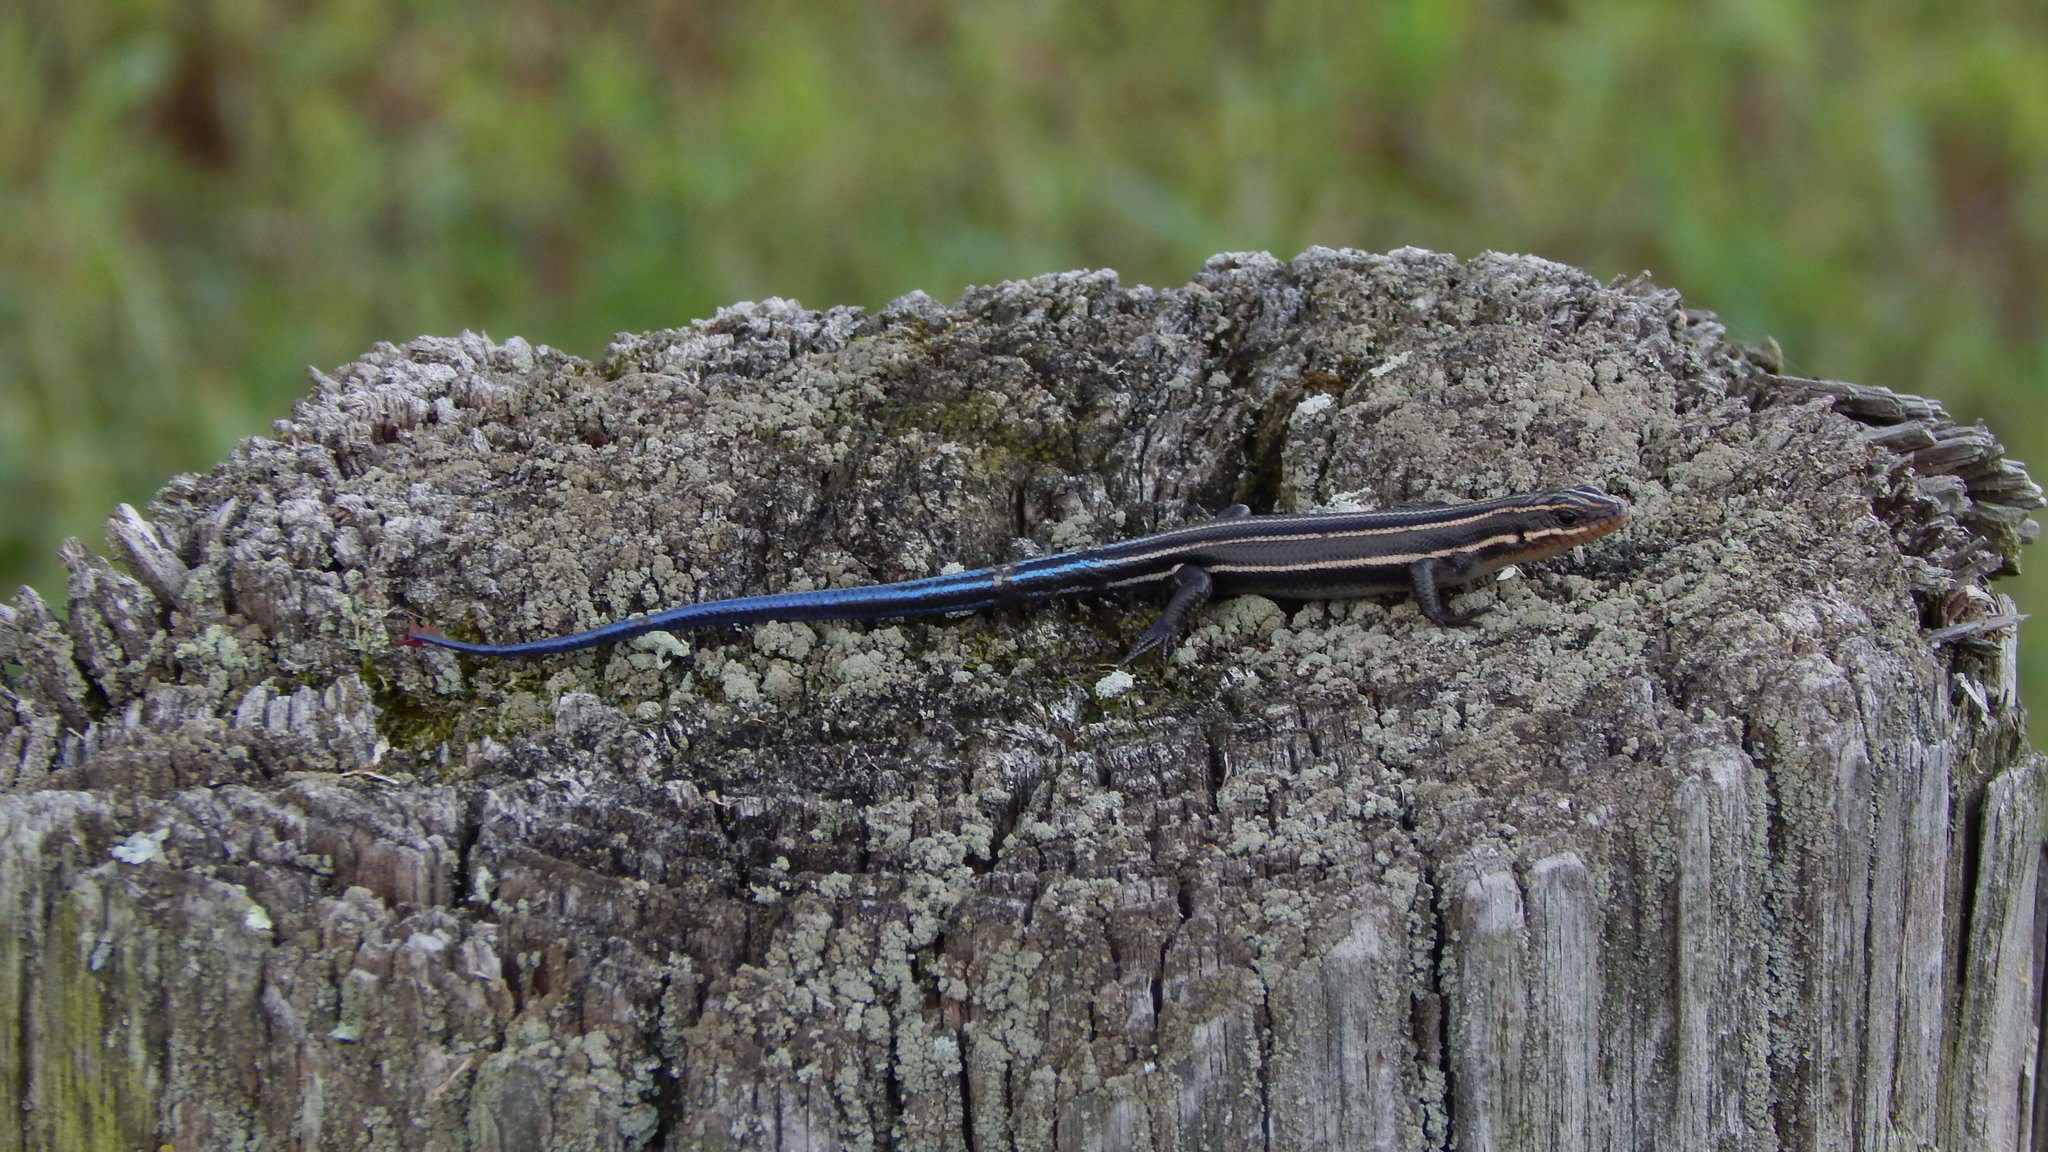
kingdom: Animalia
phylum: Chordata
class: Squamata
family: Scincidae
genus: Plestiodon
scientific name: Plestiodon fasciatus
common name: Five-lined skink
